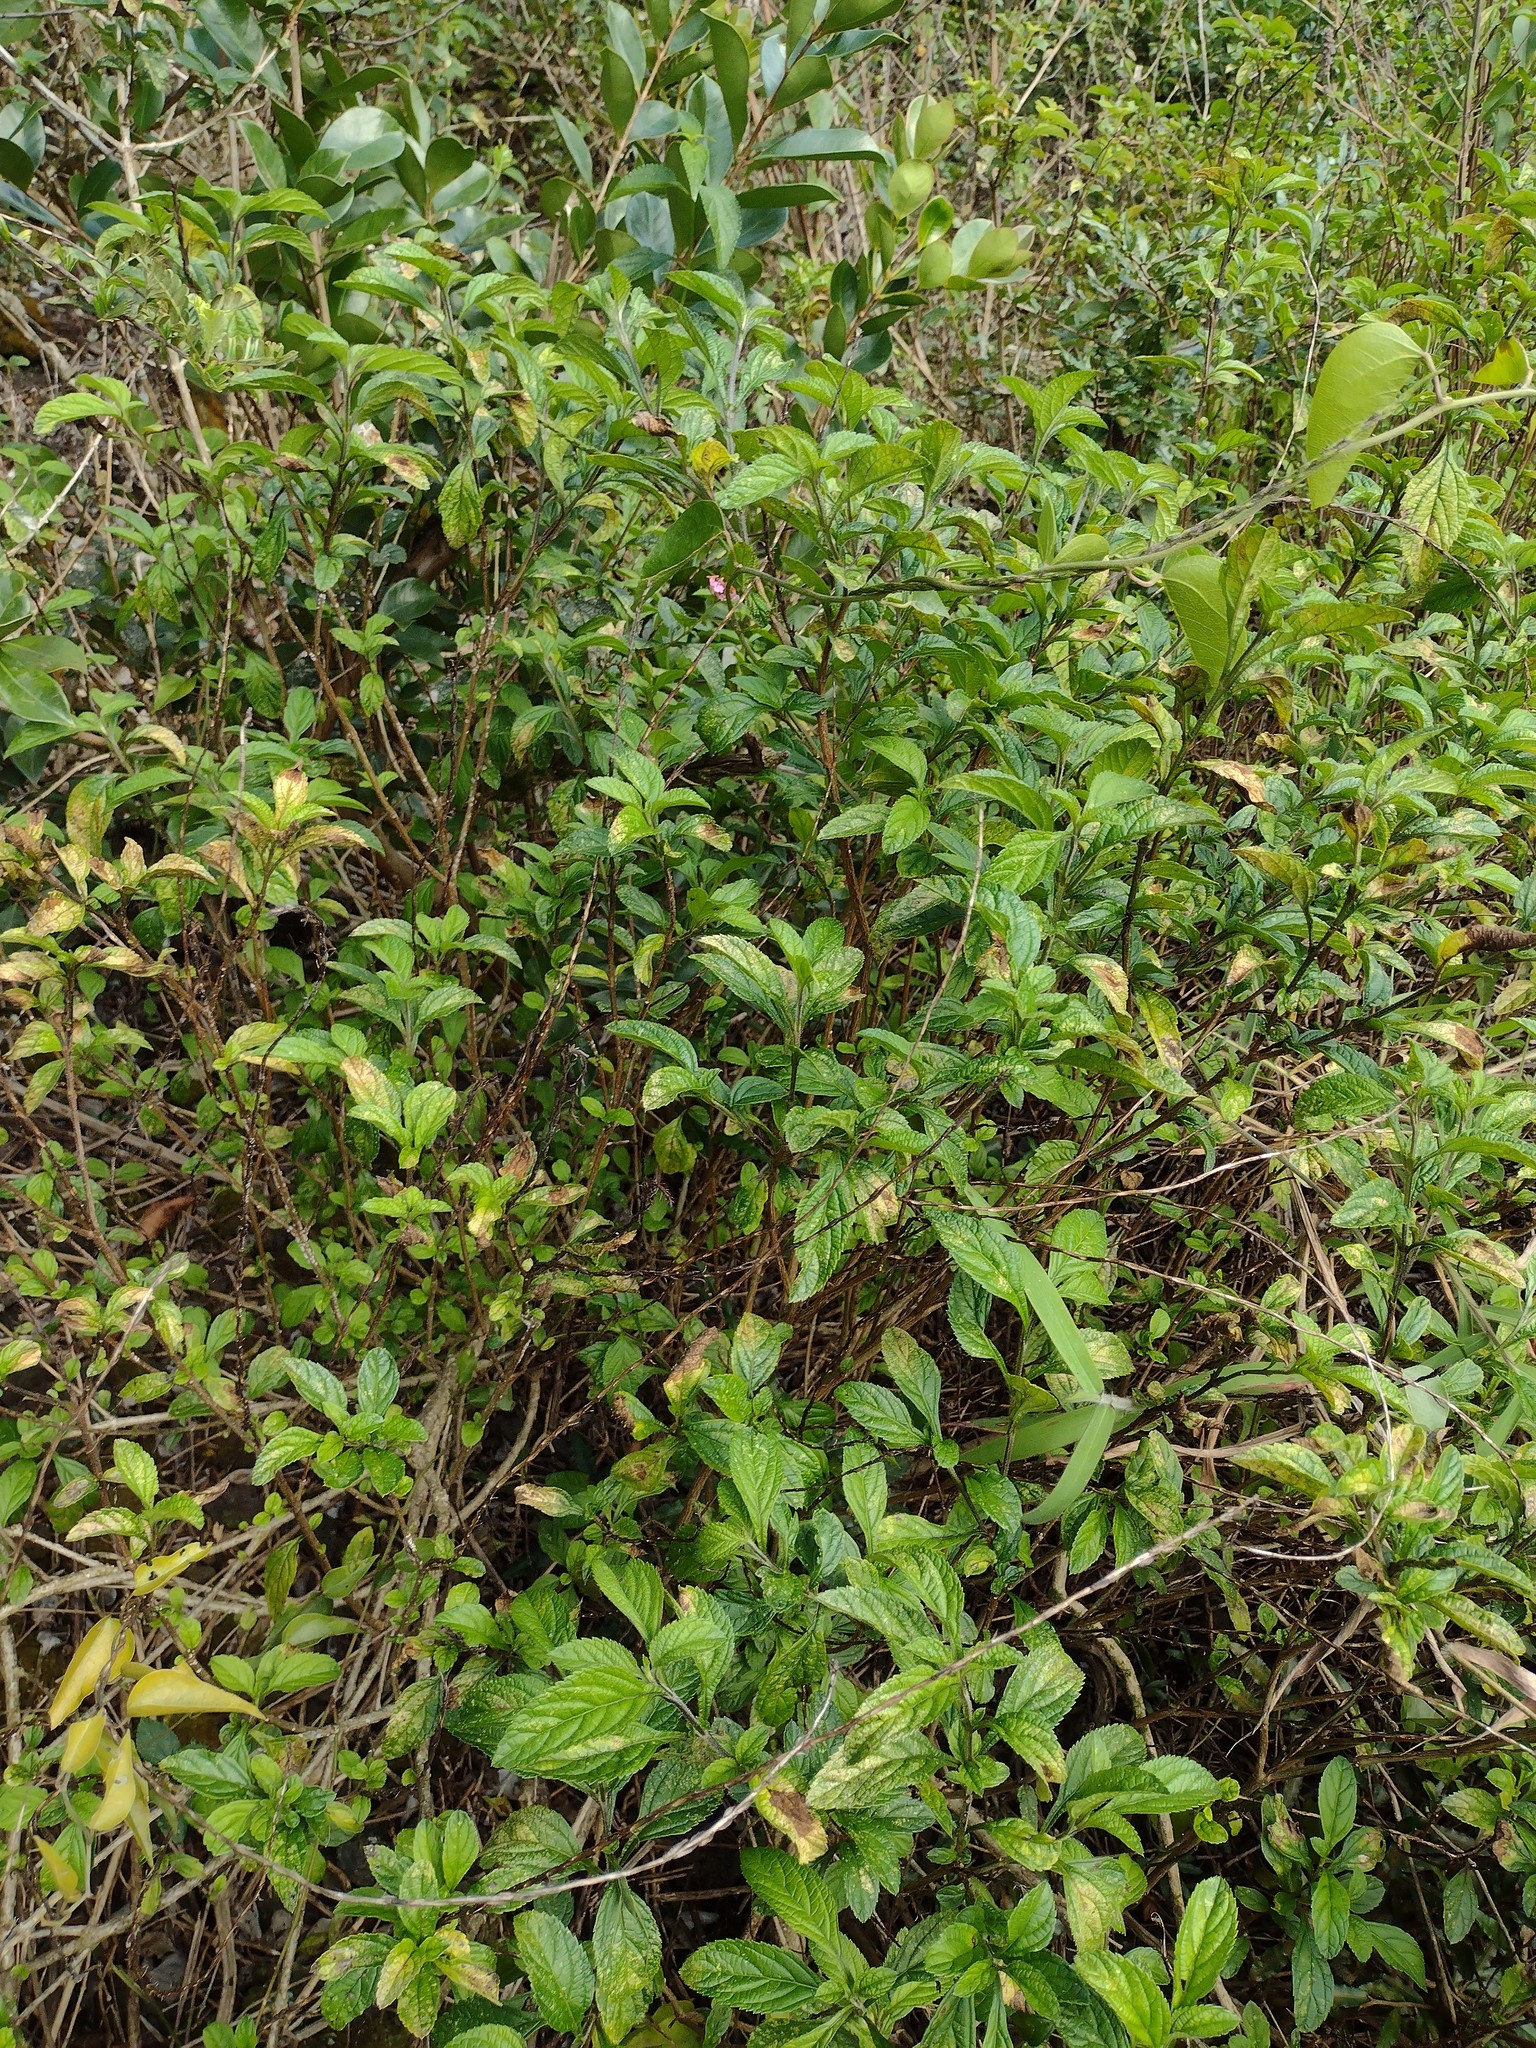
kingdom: Plantae
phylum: Tracheophyta
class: Magnoliopsida
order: Lamiales
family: Verbenaceae
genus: Stachytarpheta
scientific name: Stachytarpheta cayennensis
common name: Cayenne porterweed
